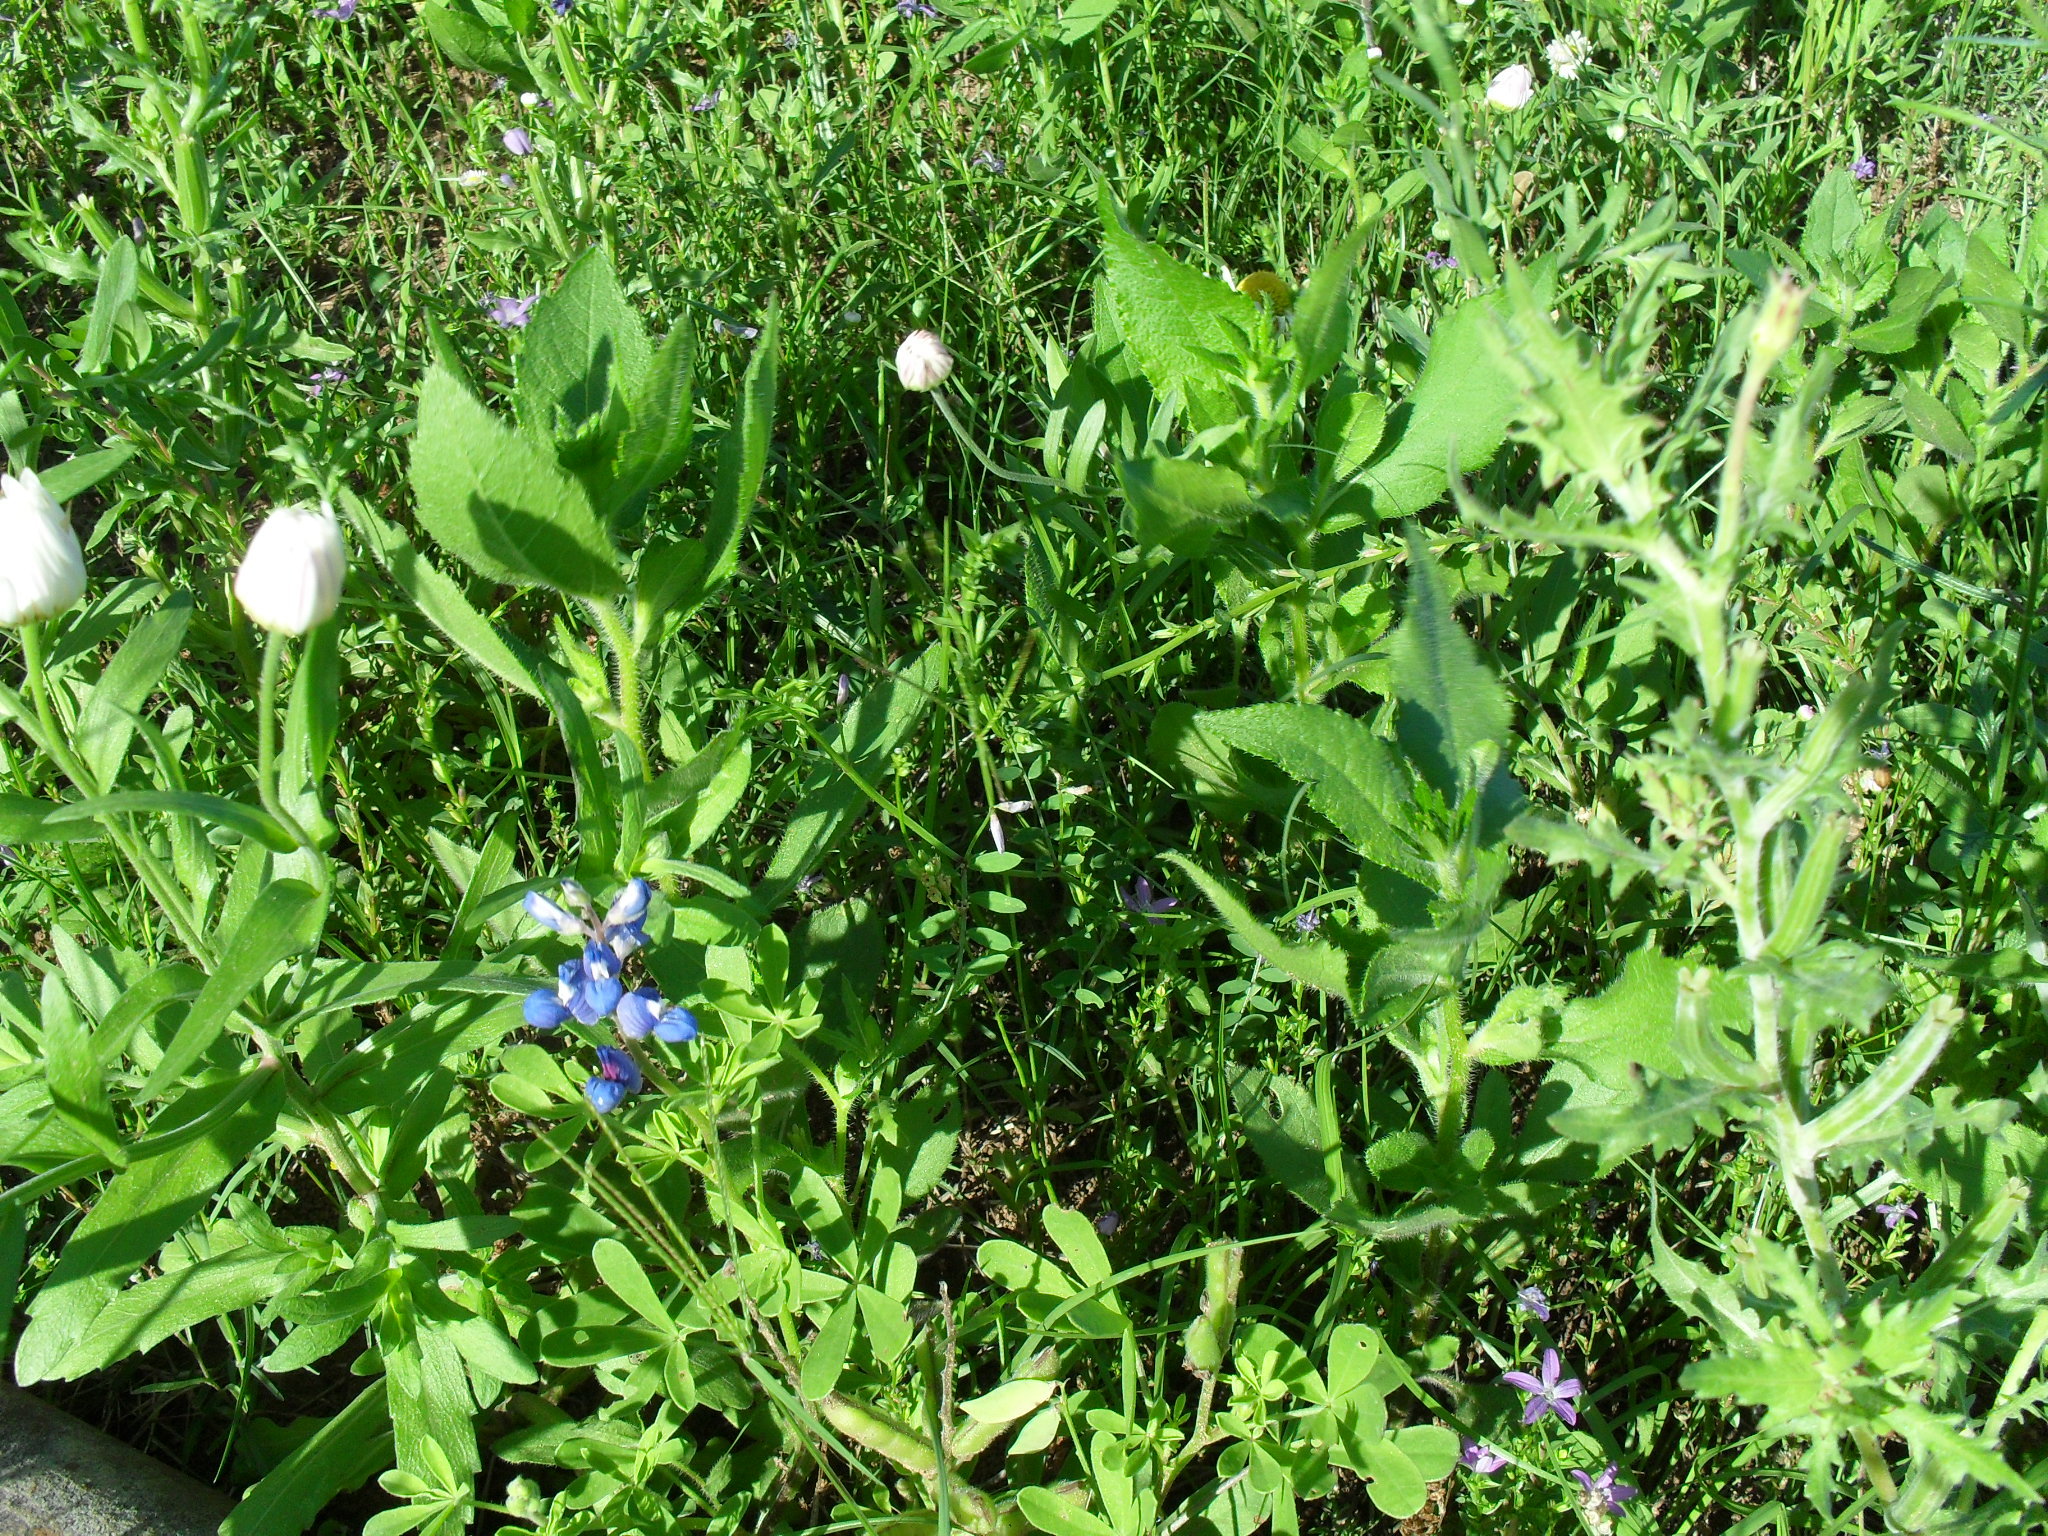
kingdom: Plantae
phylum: Tracheophyta
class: Magnoliopsida
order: Fabales
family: Fabaceae
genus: Lupinus
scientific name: Lupinus subcarnosus
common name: Texas bluebonnet
